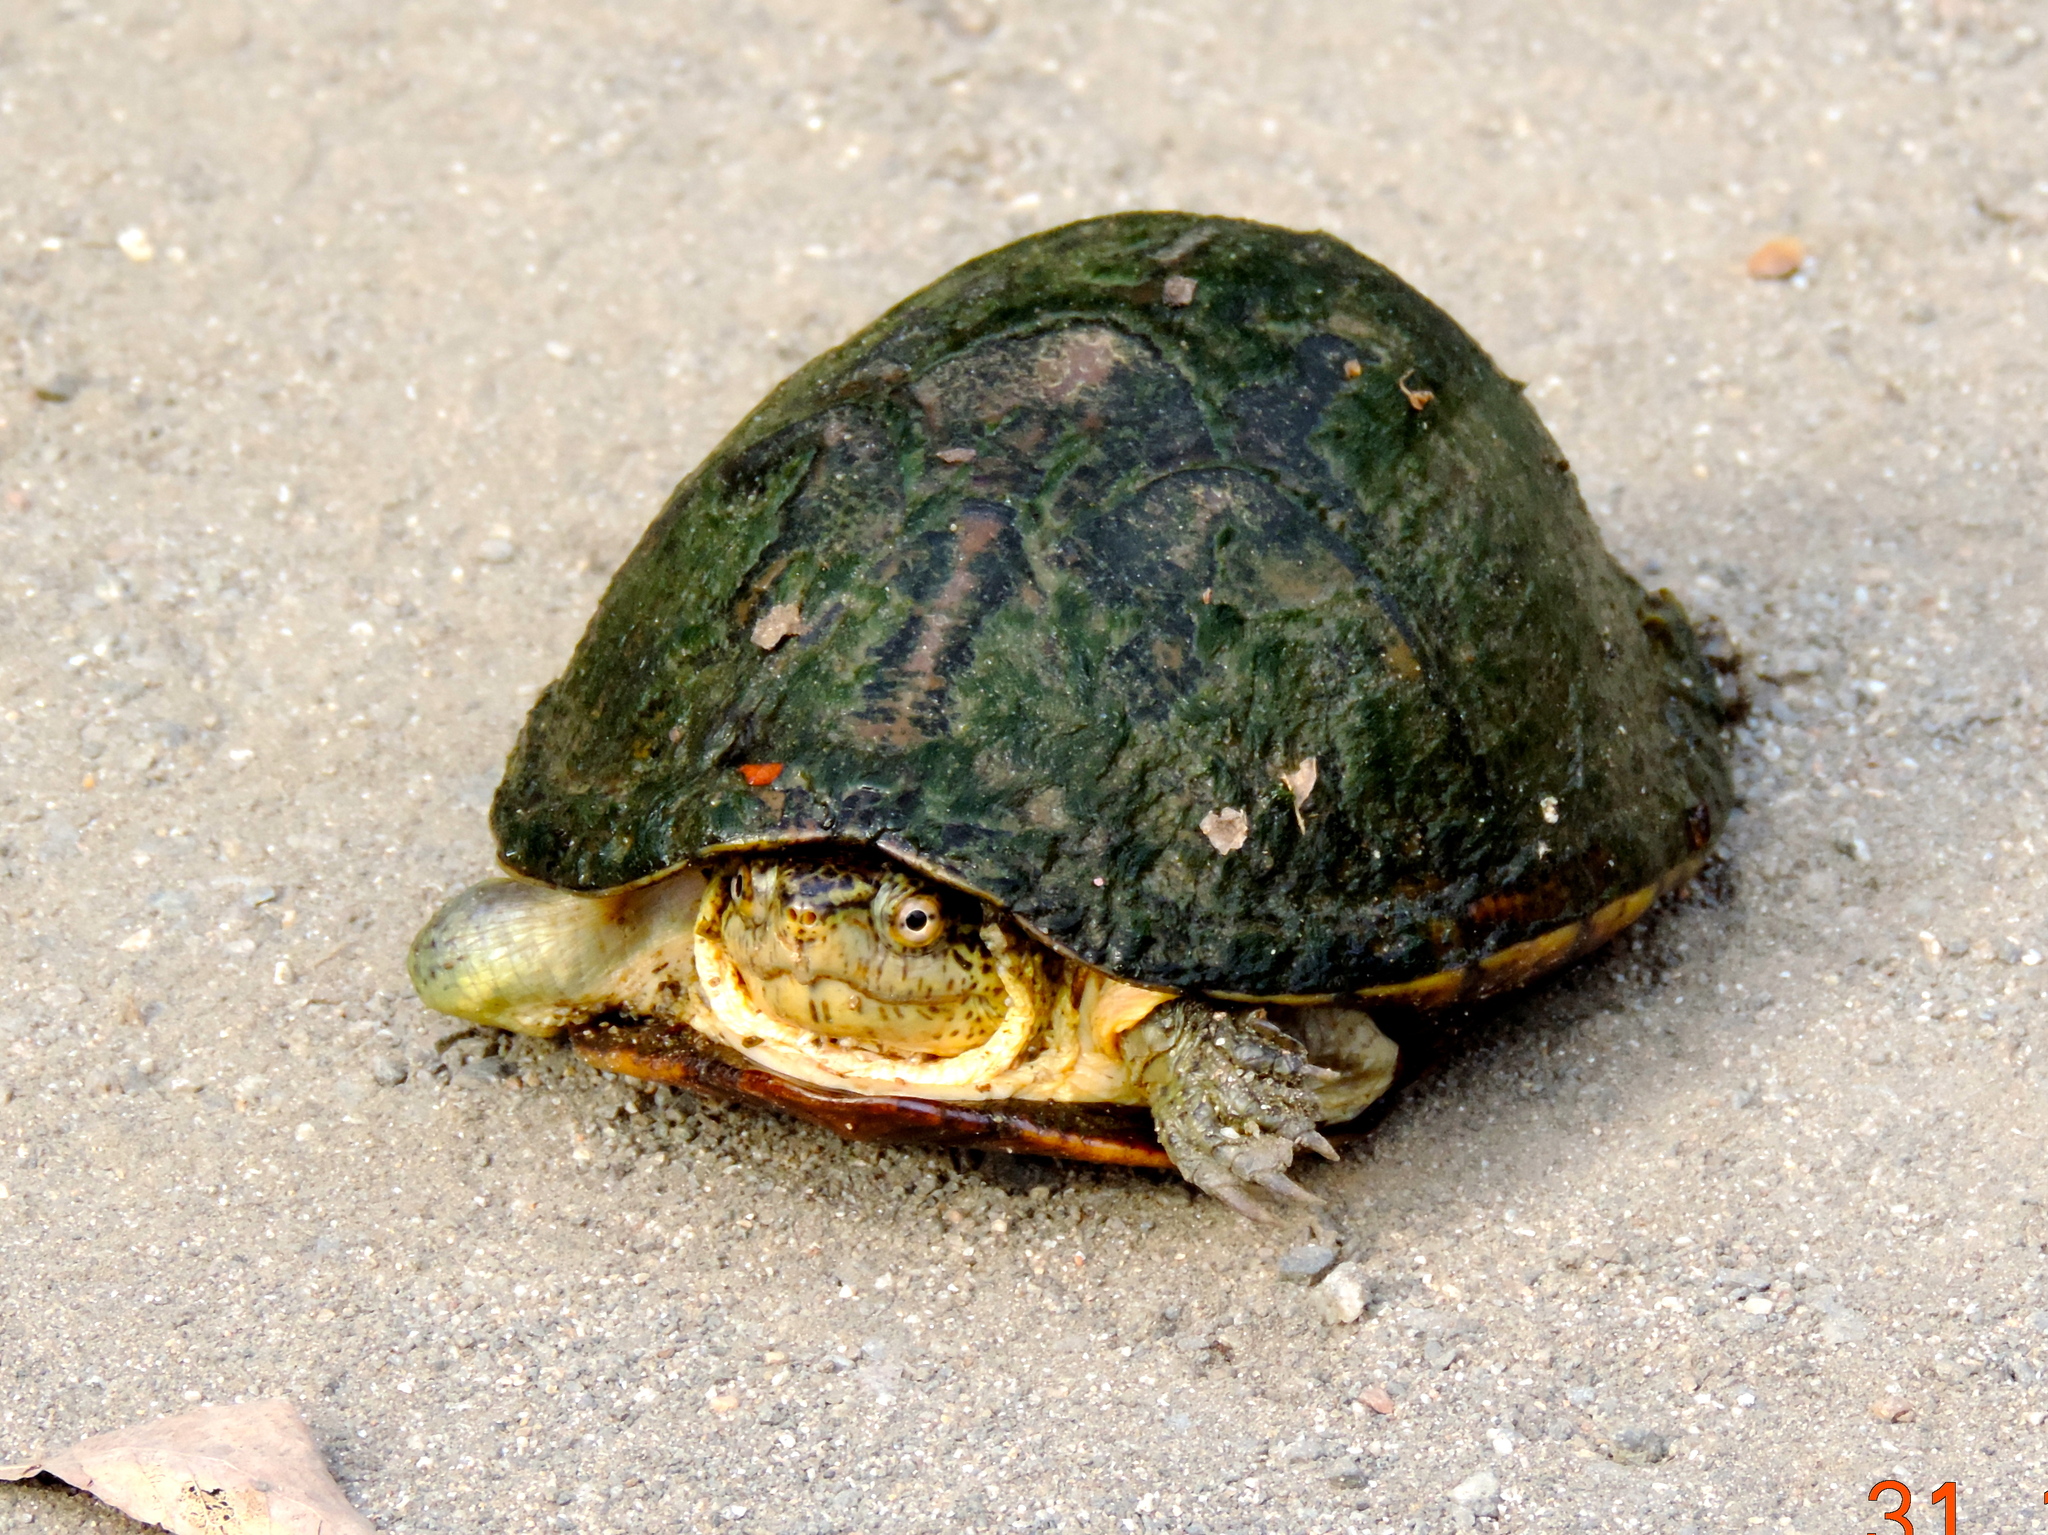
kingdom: Animalia
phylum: Chordata
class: Testudines
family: Kinosternidae
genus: Kinosternon
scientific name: Kinosternon integrum
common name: Mexican mud turtle
